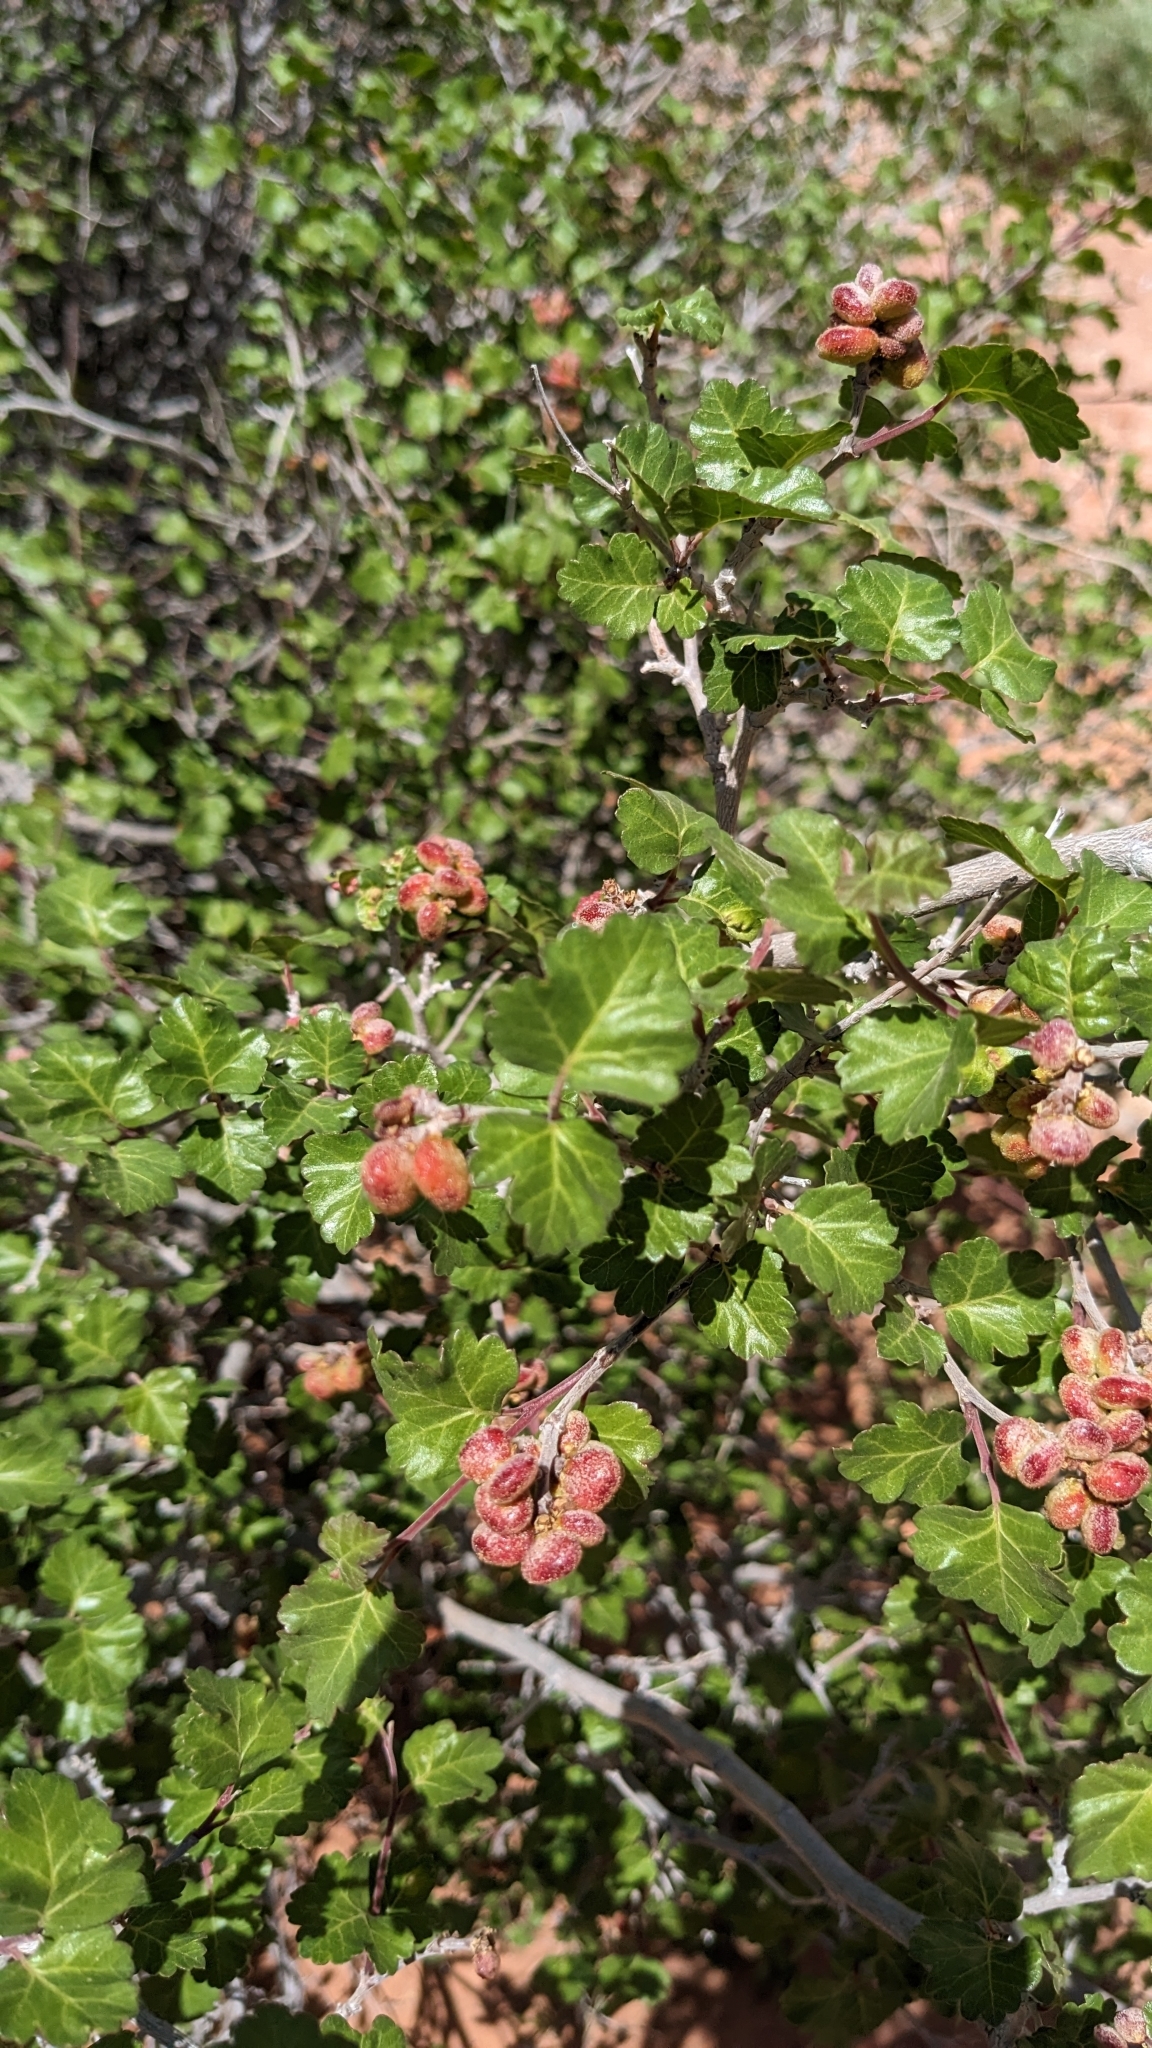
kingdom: Plantae
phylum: Tracheophyta
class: Magnoliopsida
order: Sapindales
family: Anacardiaceae
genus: Rhus
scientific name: Rhus aromatica
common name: Aromatic sumac
